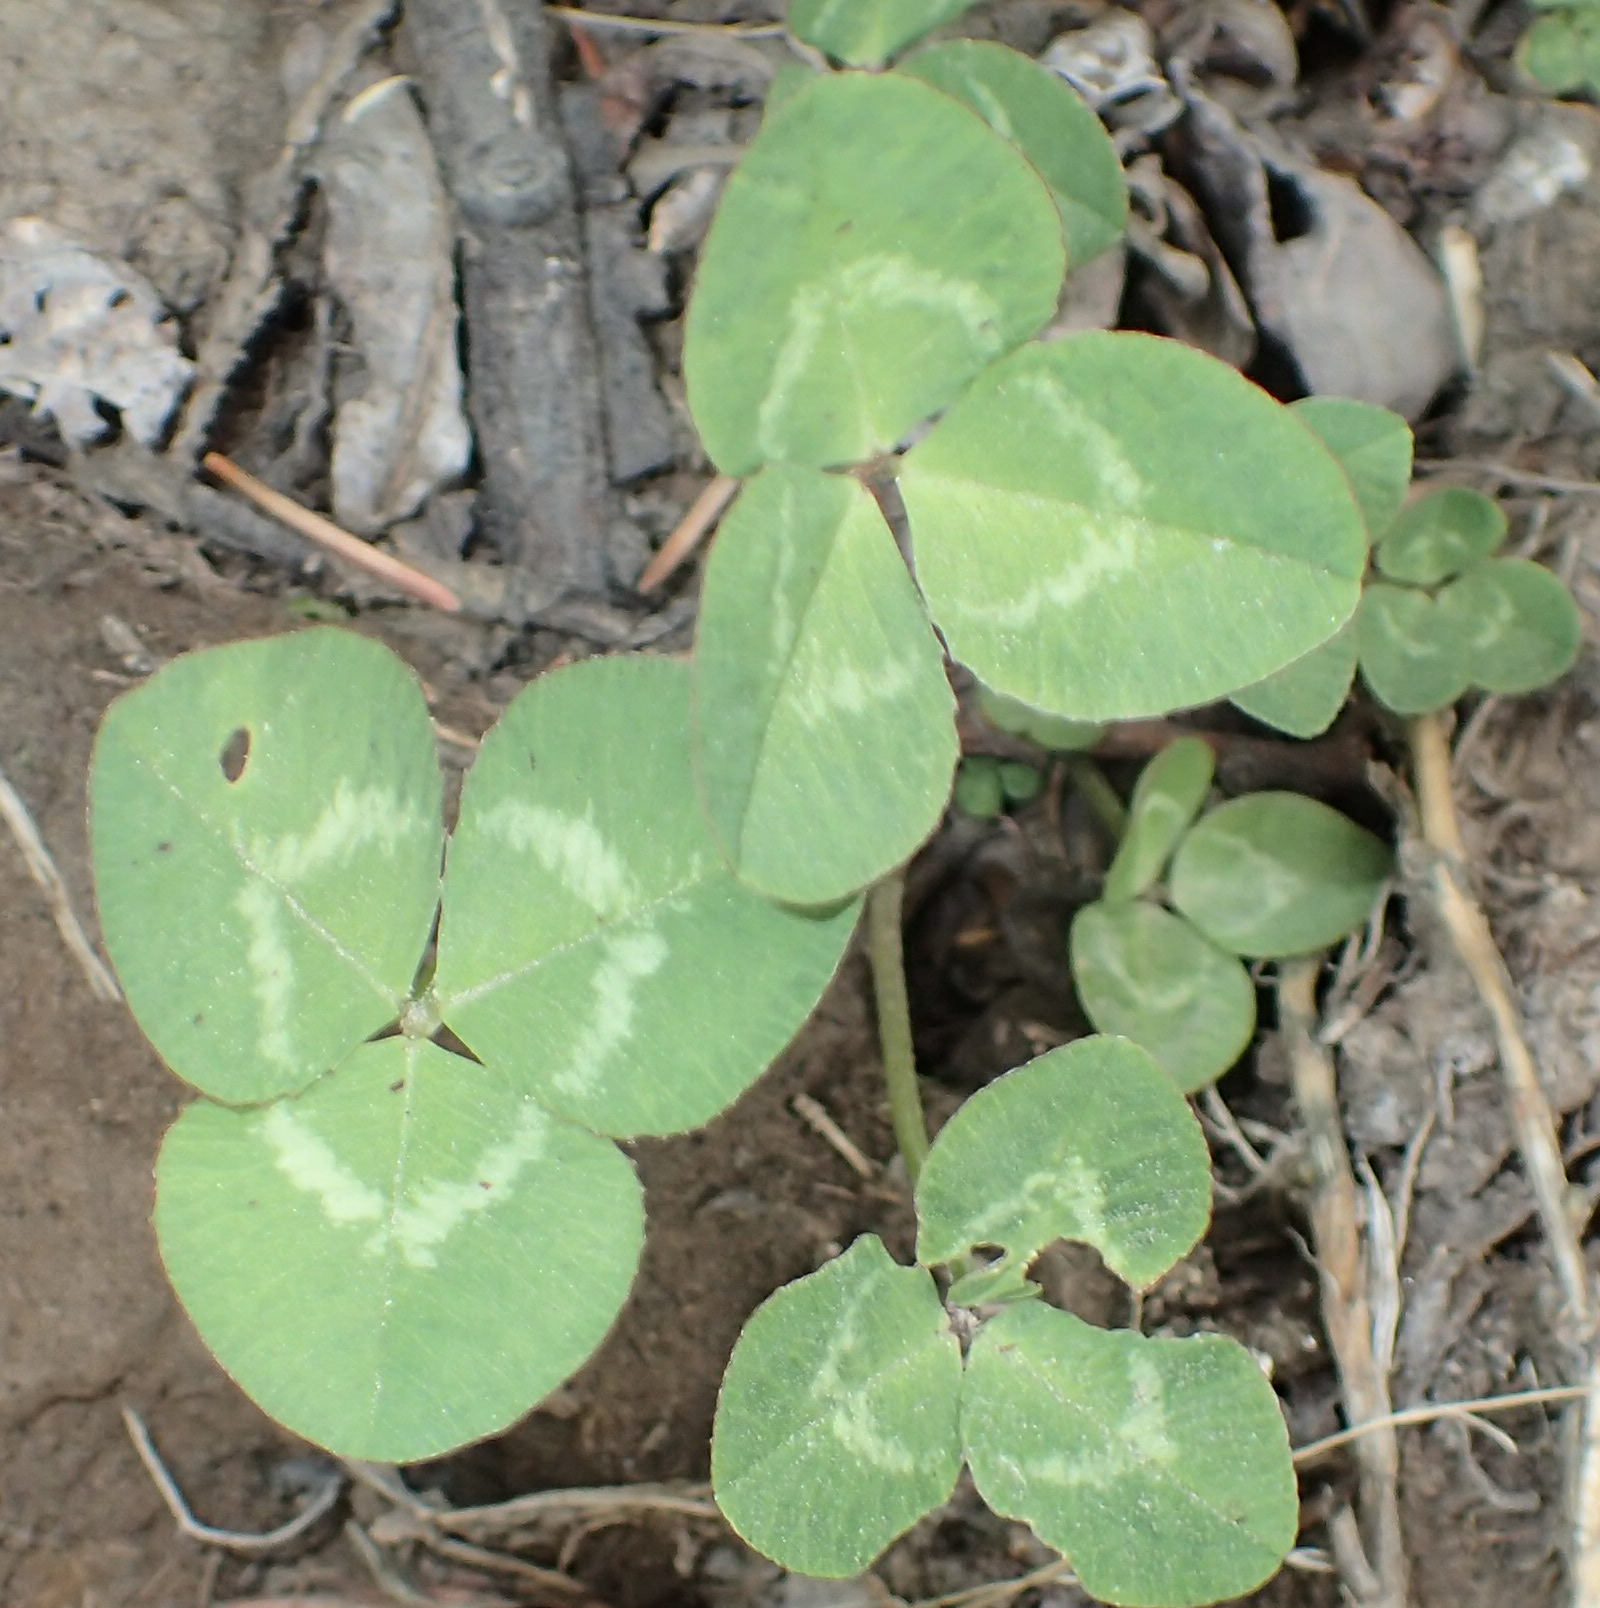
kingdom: Plantae
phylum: Tracheophyta
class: Magnoliopsida
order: Fabales
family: Fabaceae
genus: Trifolium
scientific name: Trifolium repens
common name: White clover
